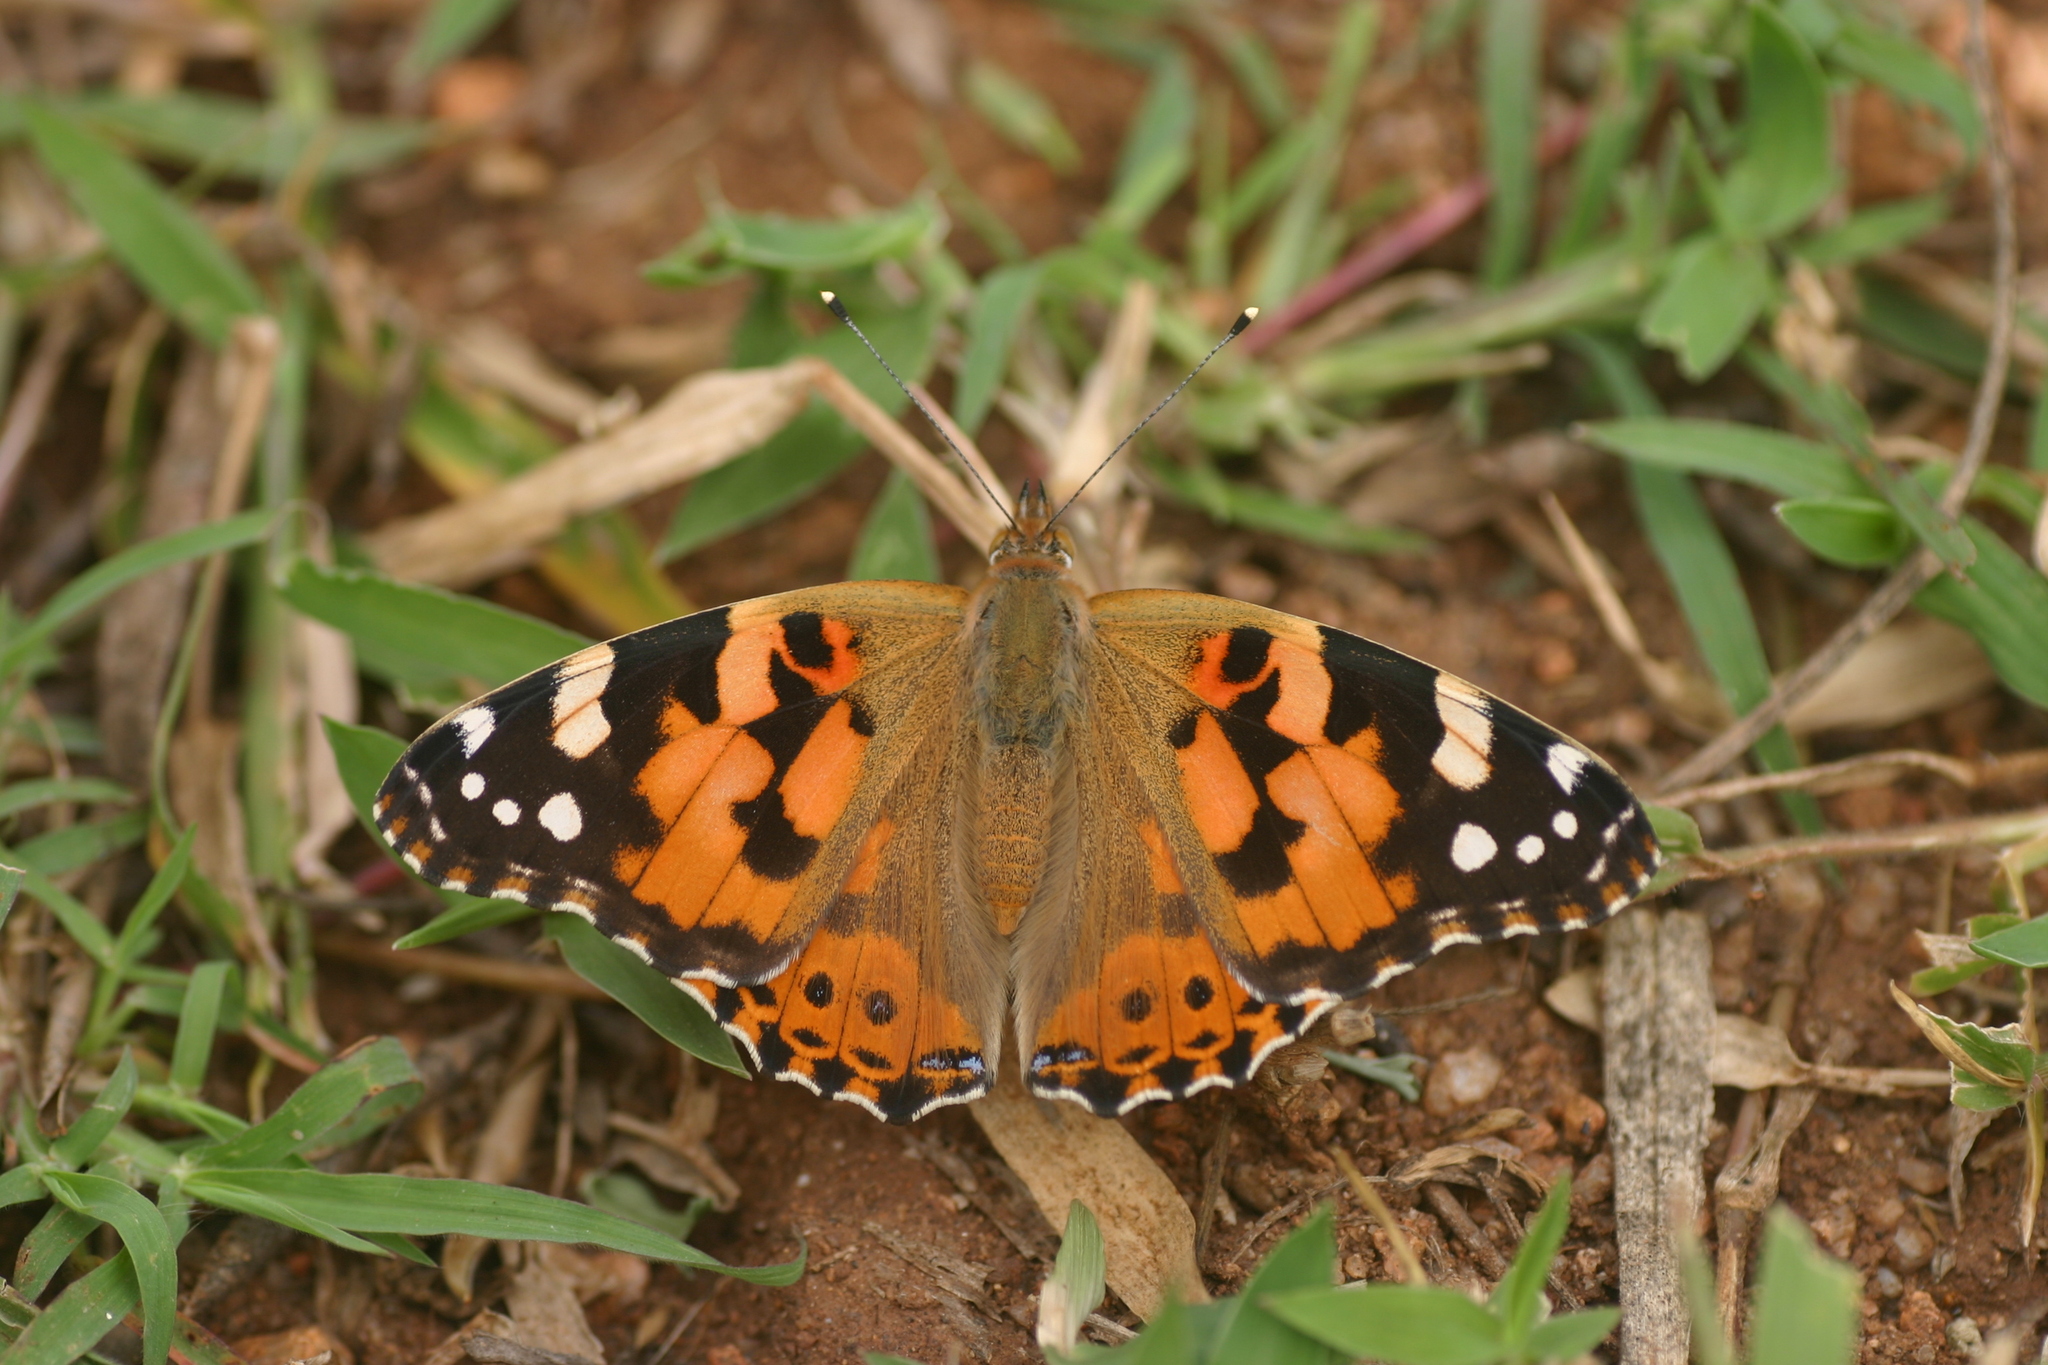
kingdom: Animalia
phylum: Arthropoda
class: Insecta
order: Lepidoptera
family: Nymphalidae
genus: Vanessa
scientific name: Vanessa cardui
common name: Painted lady
